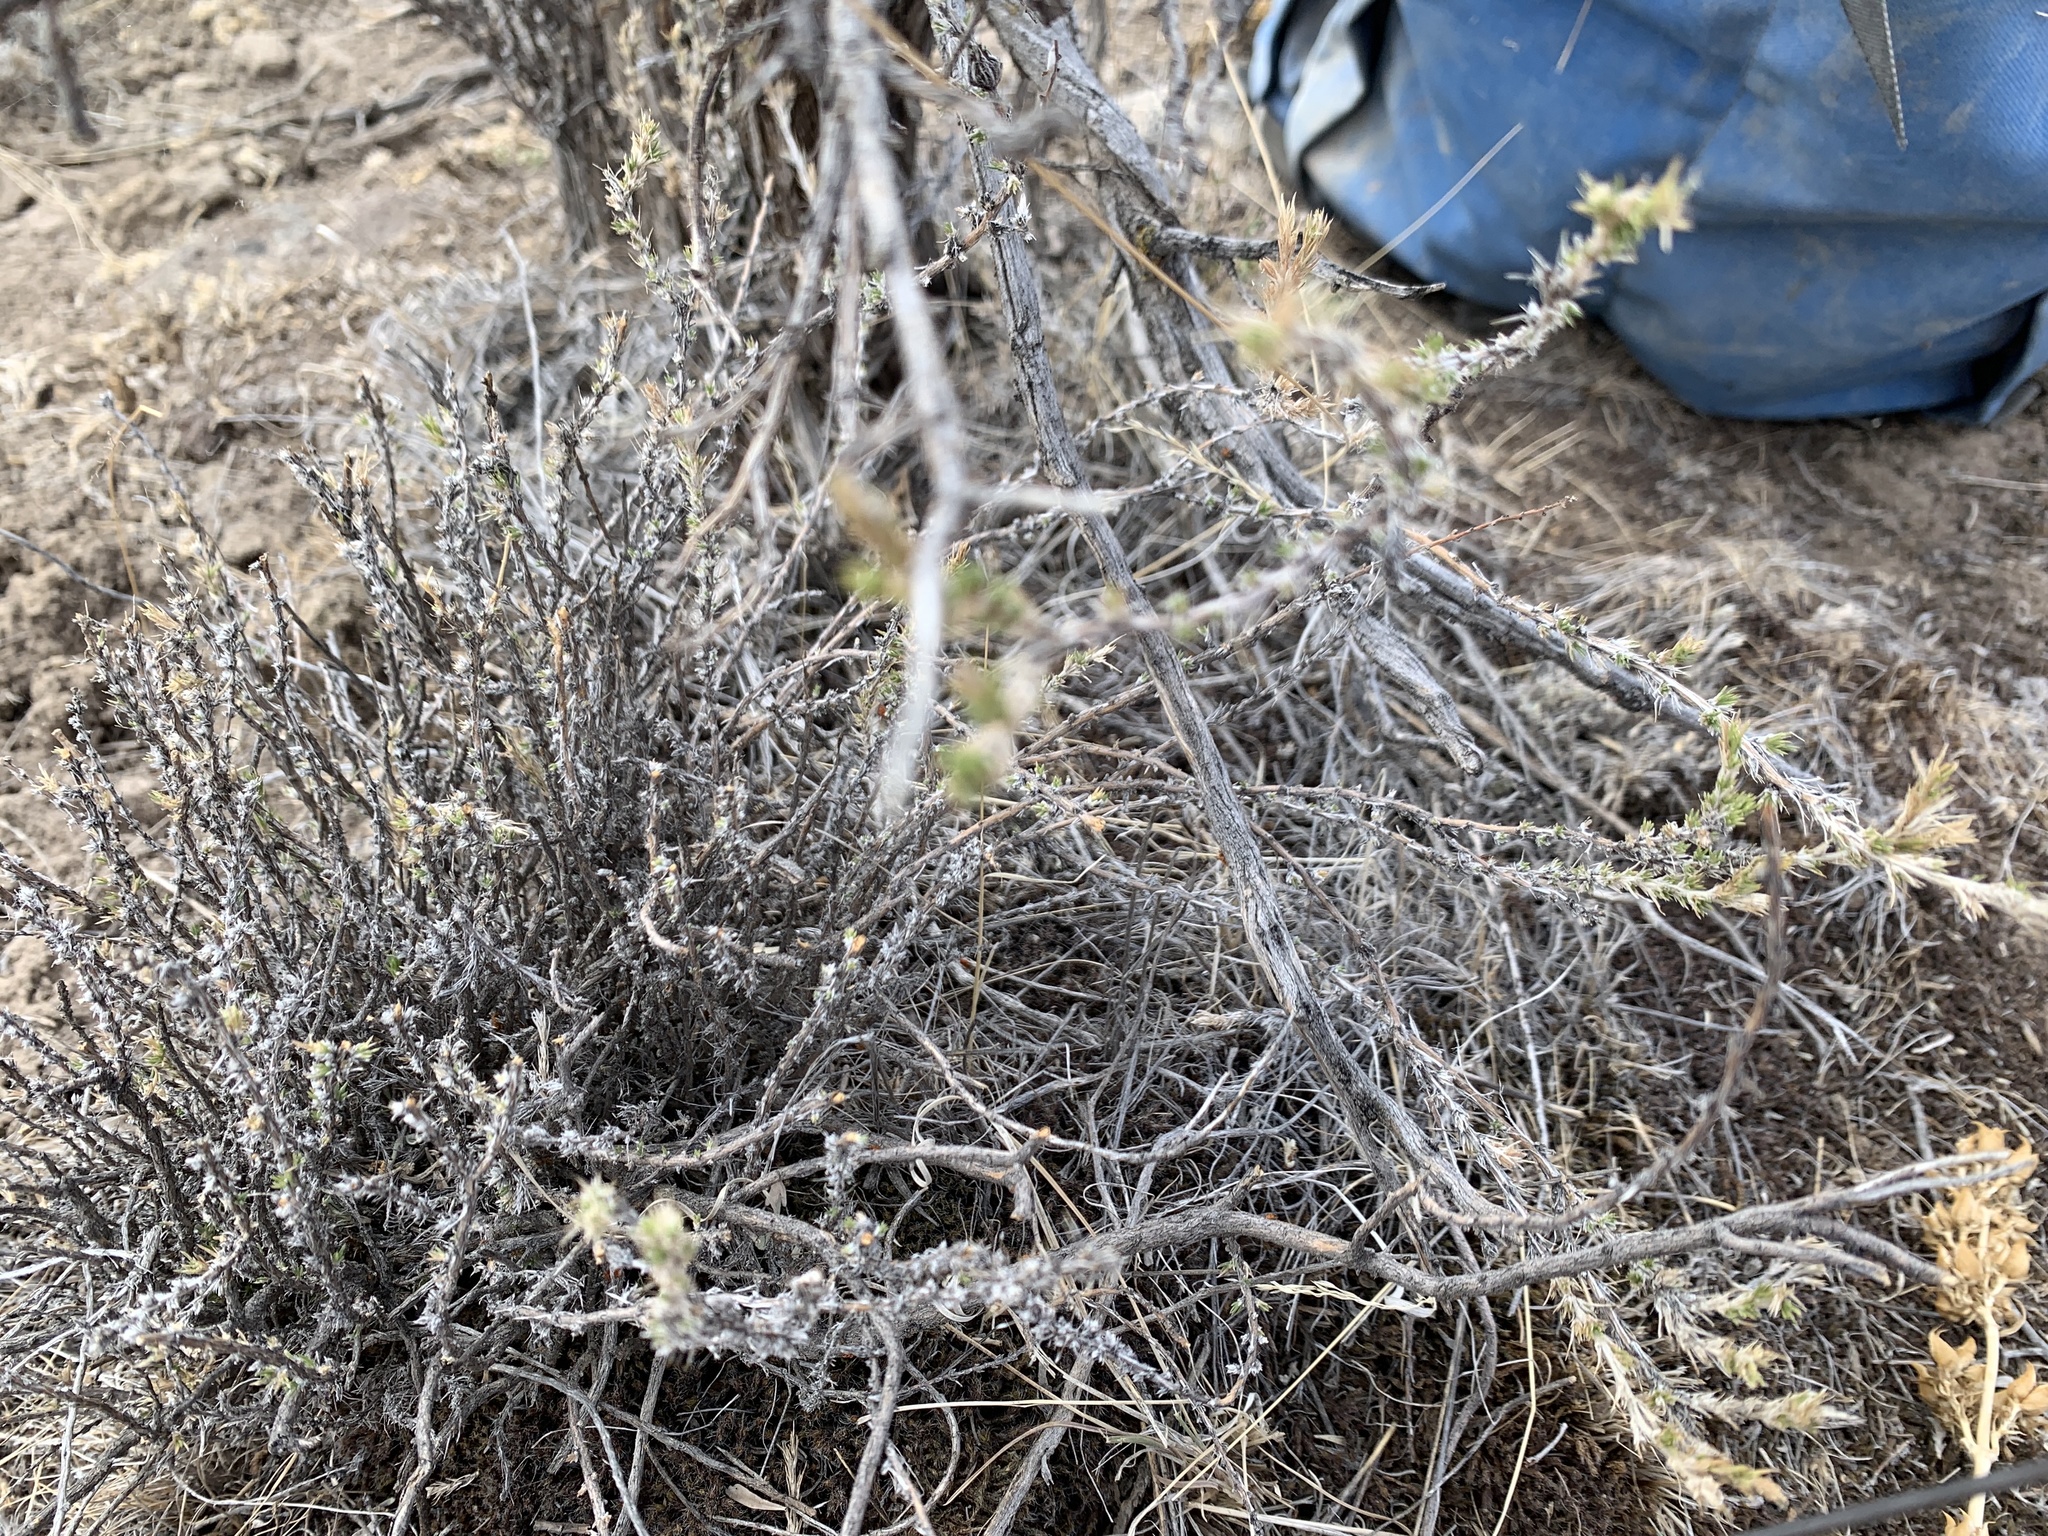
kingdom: Plantae
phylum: Tracheophyta
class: Magnoliopsida
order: Ericales
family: Polemoniaceae
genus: Linanthus
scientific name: Linanthus pungens
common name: Granite prickly phlox
